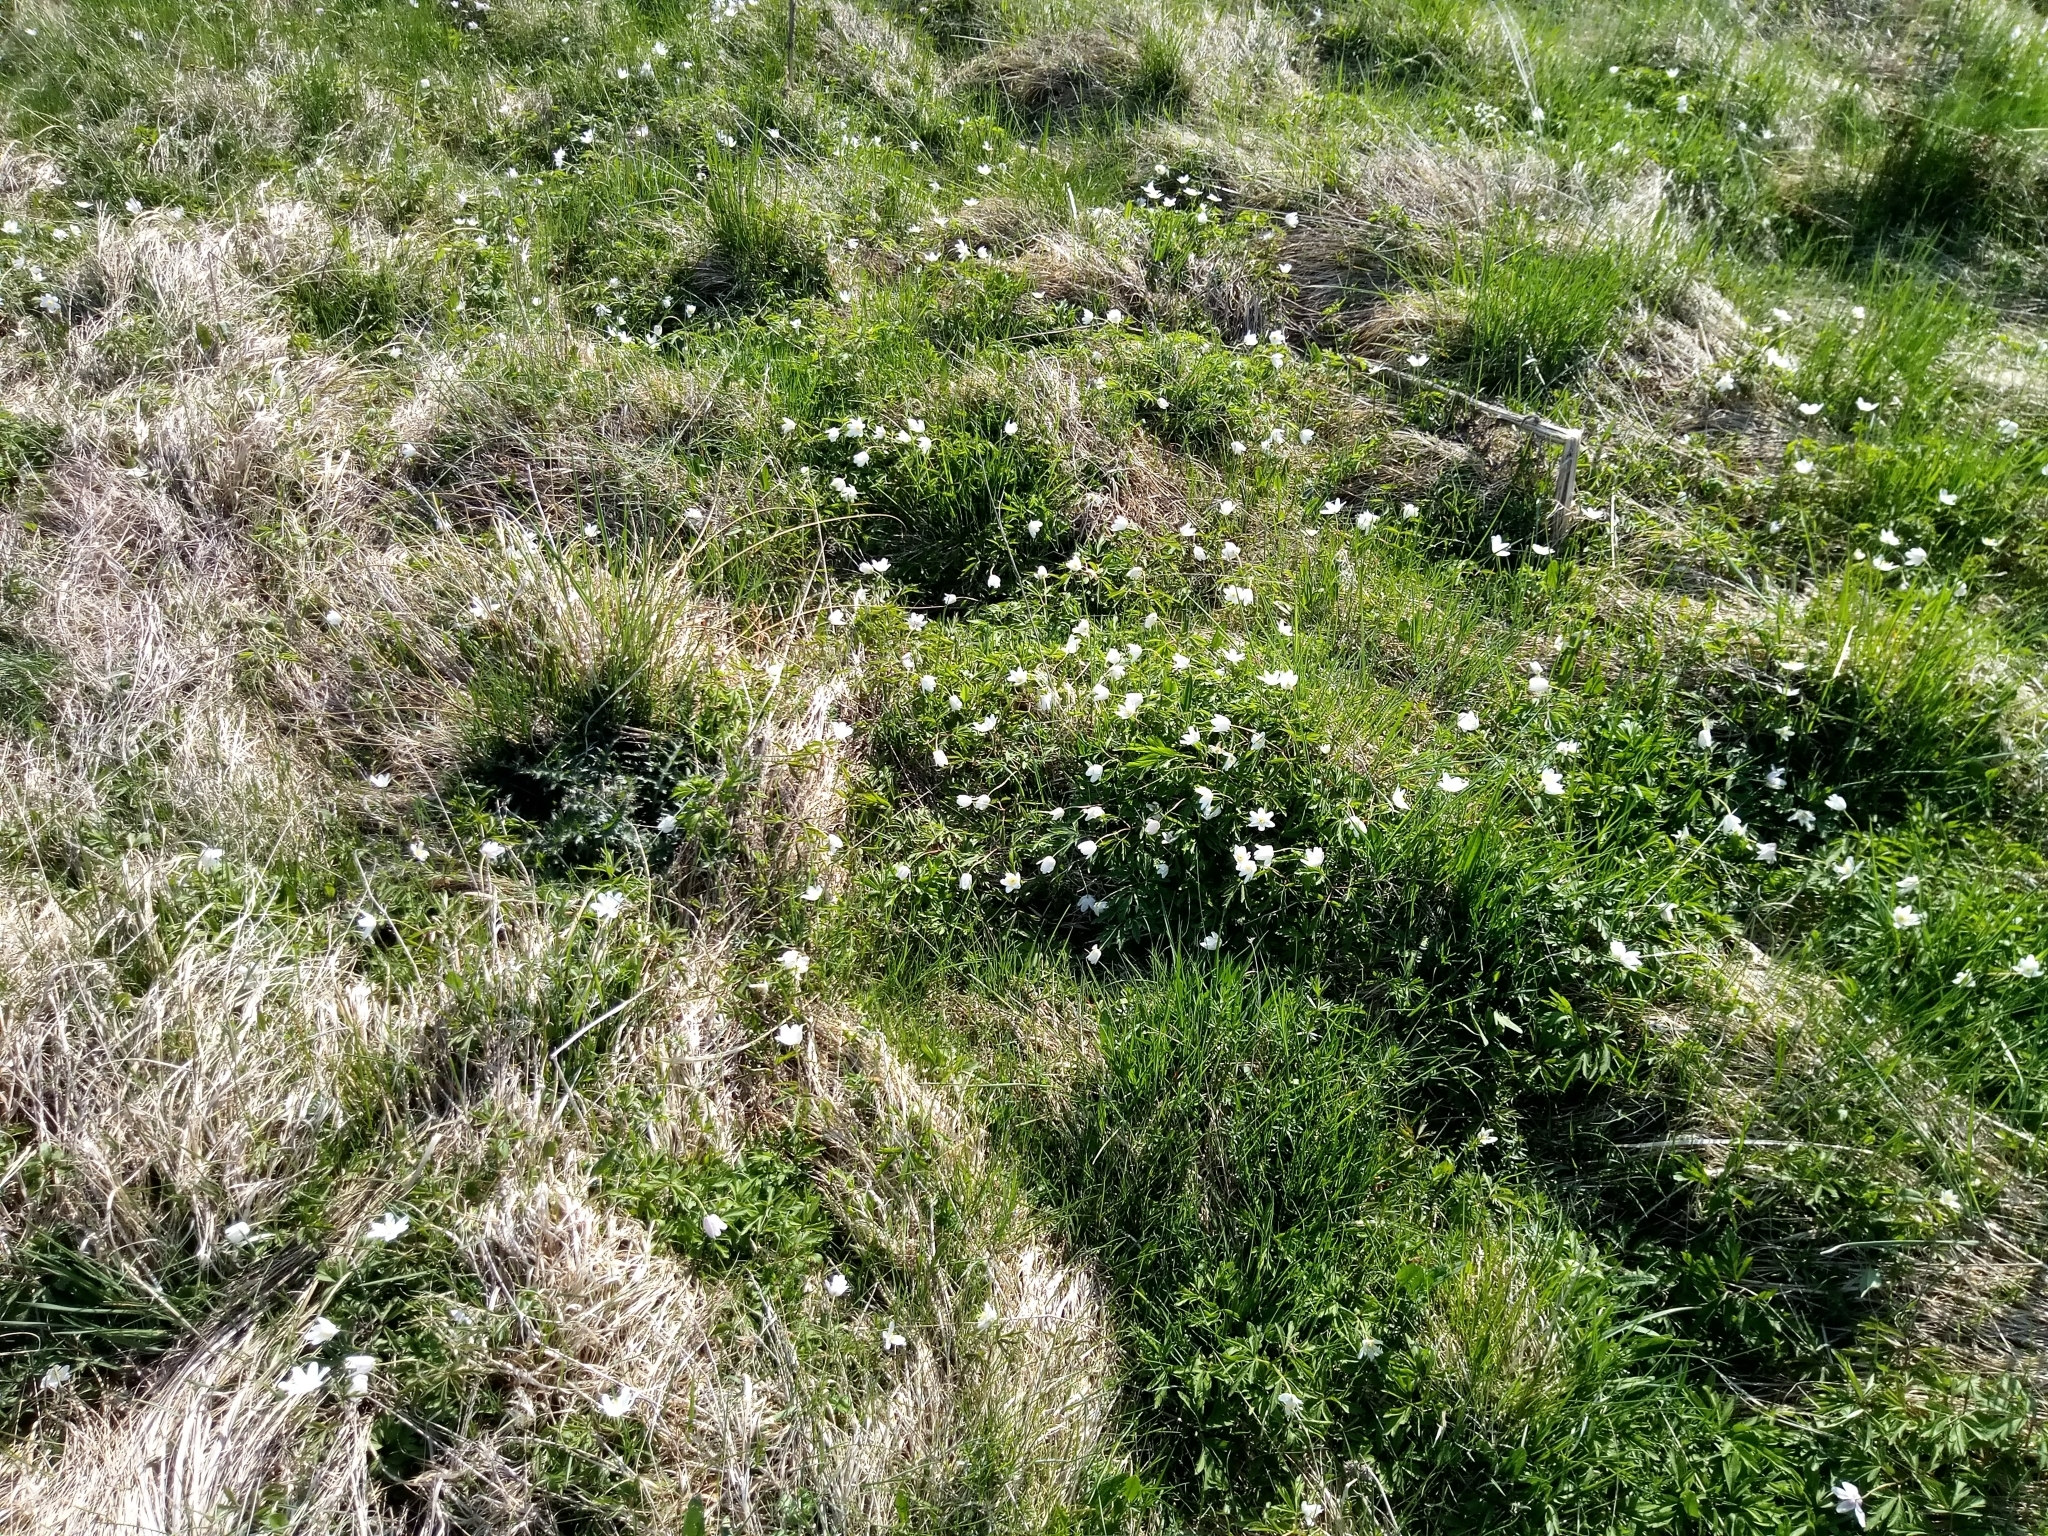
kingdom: Plantae
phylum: Tracheophyta
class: Magnoliopsida
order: Ranunculales
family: Ranunculaceae
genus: Anemone
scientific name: Anemone nemorosa
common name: Wood anemone
